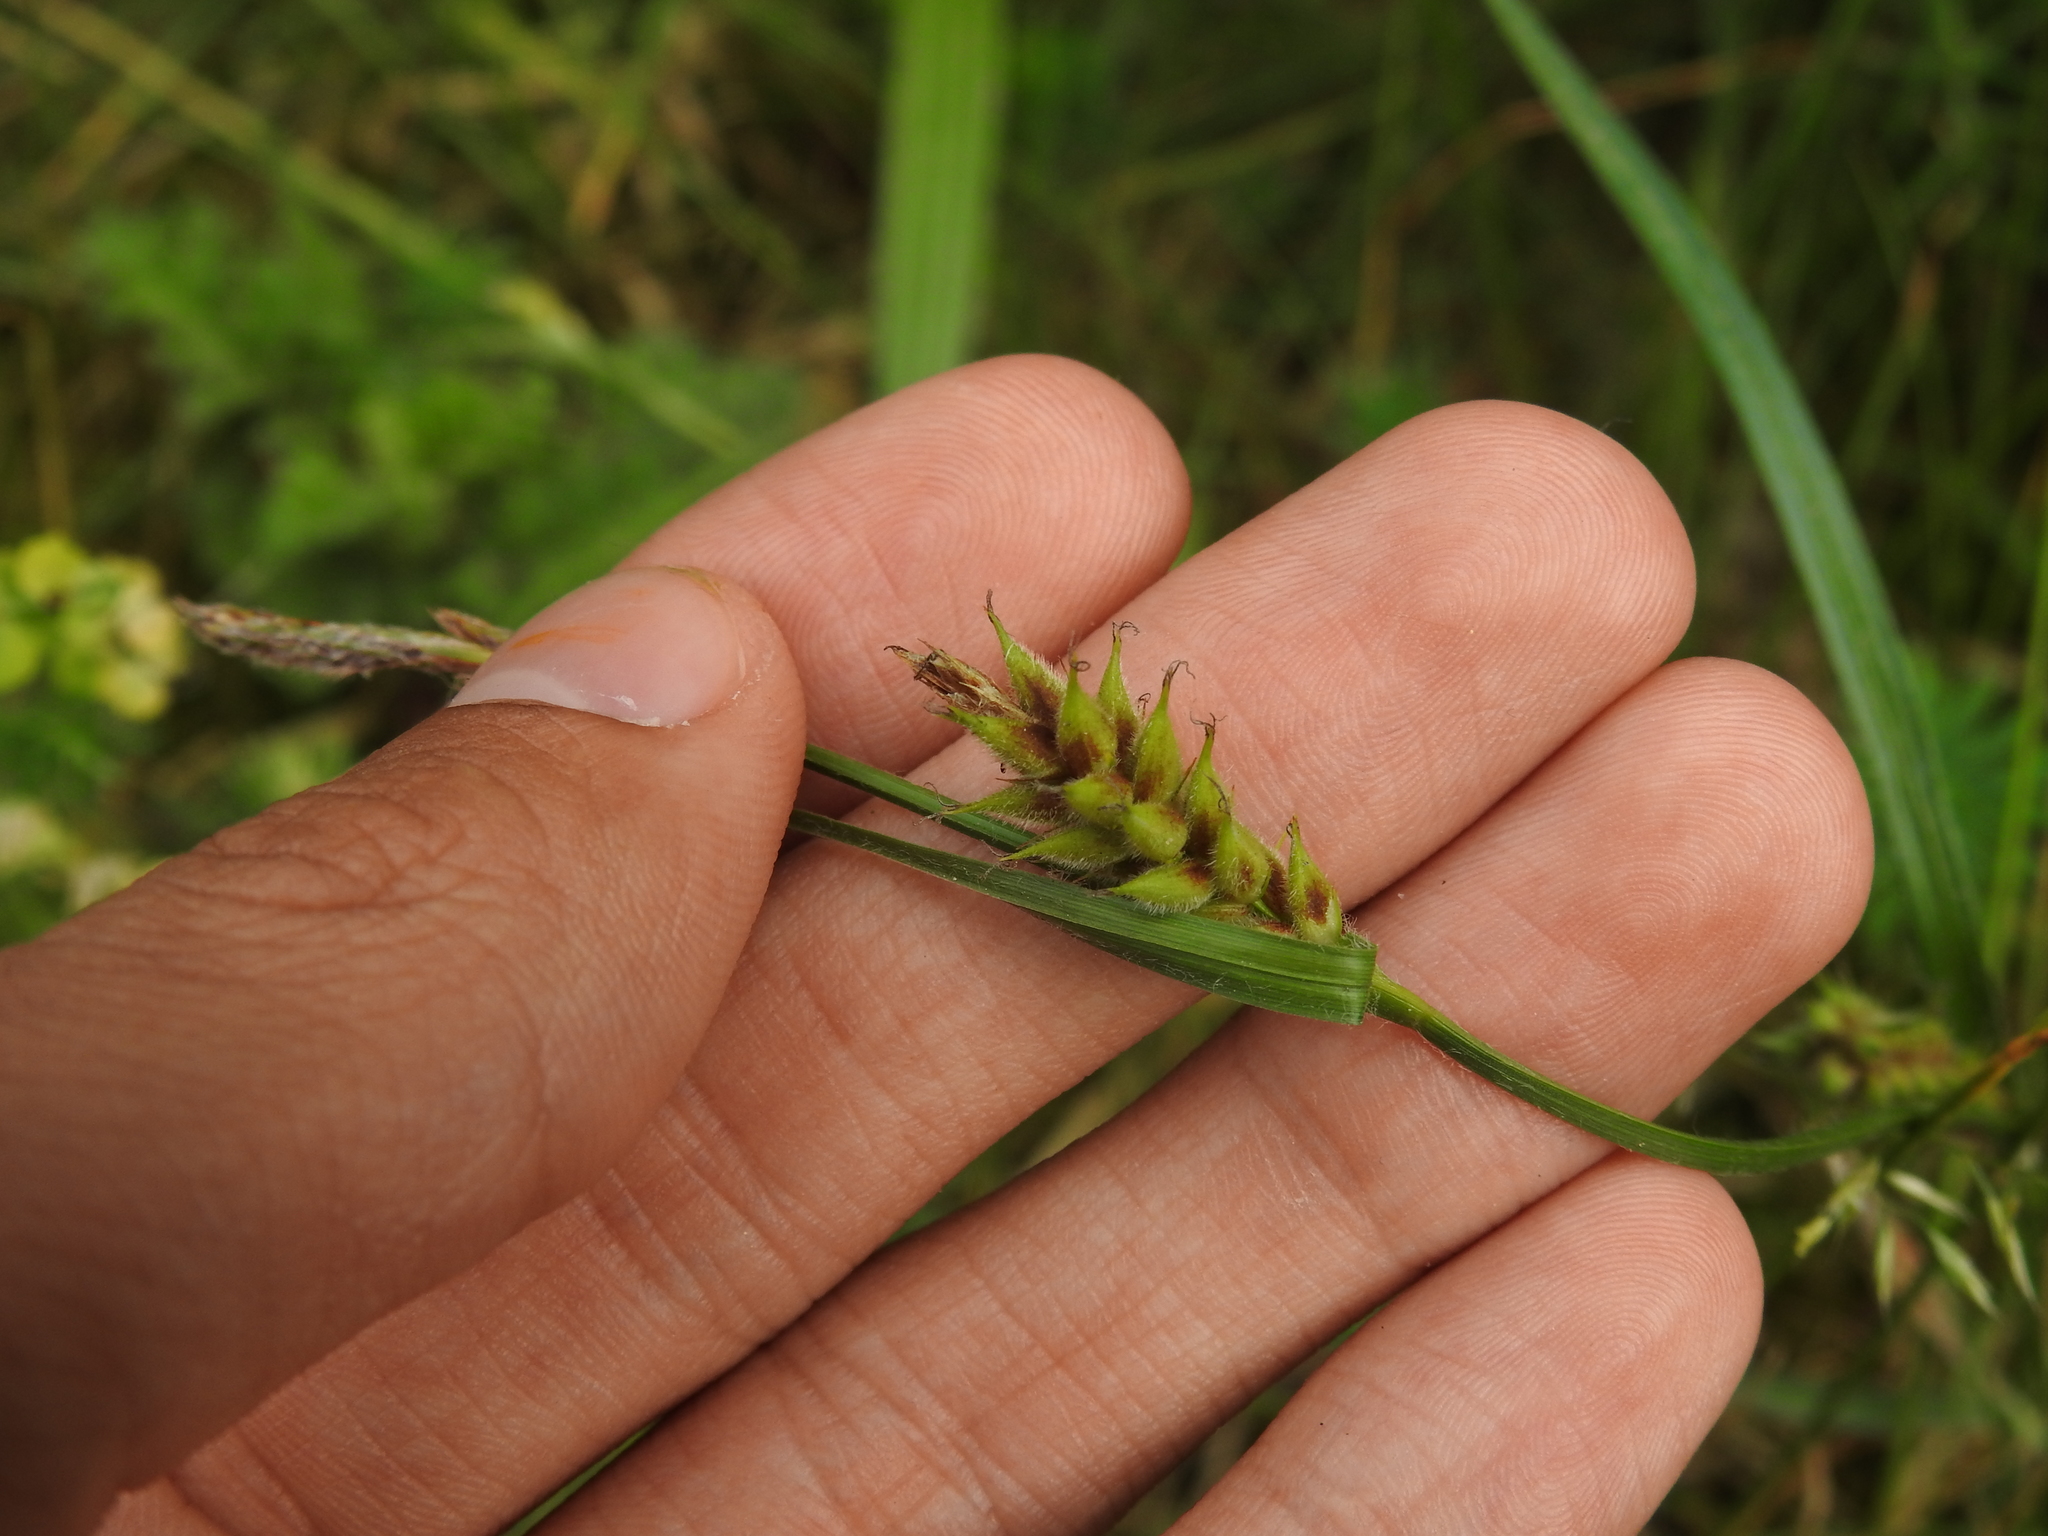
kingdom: Plantae
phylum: Tracheophyta
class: Liliopsida
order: Poales
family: Cyperaceae
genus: Carex
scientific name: Carex hirta
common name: Hairy sedge
